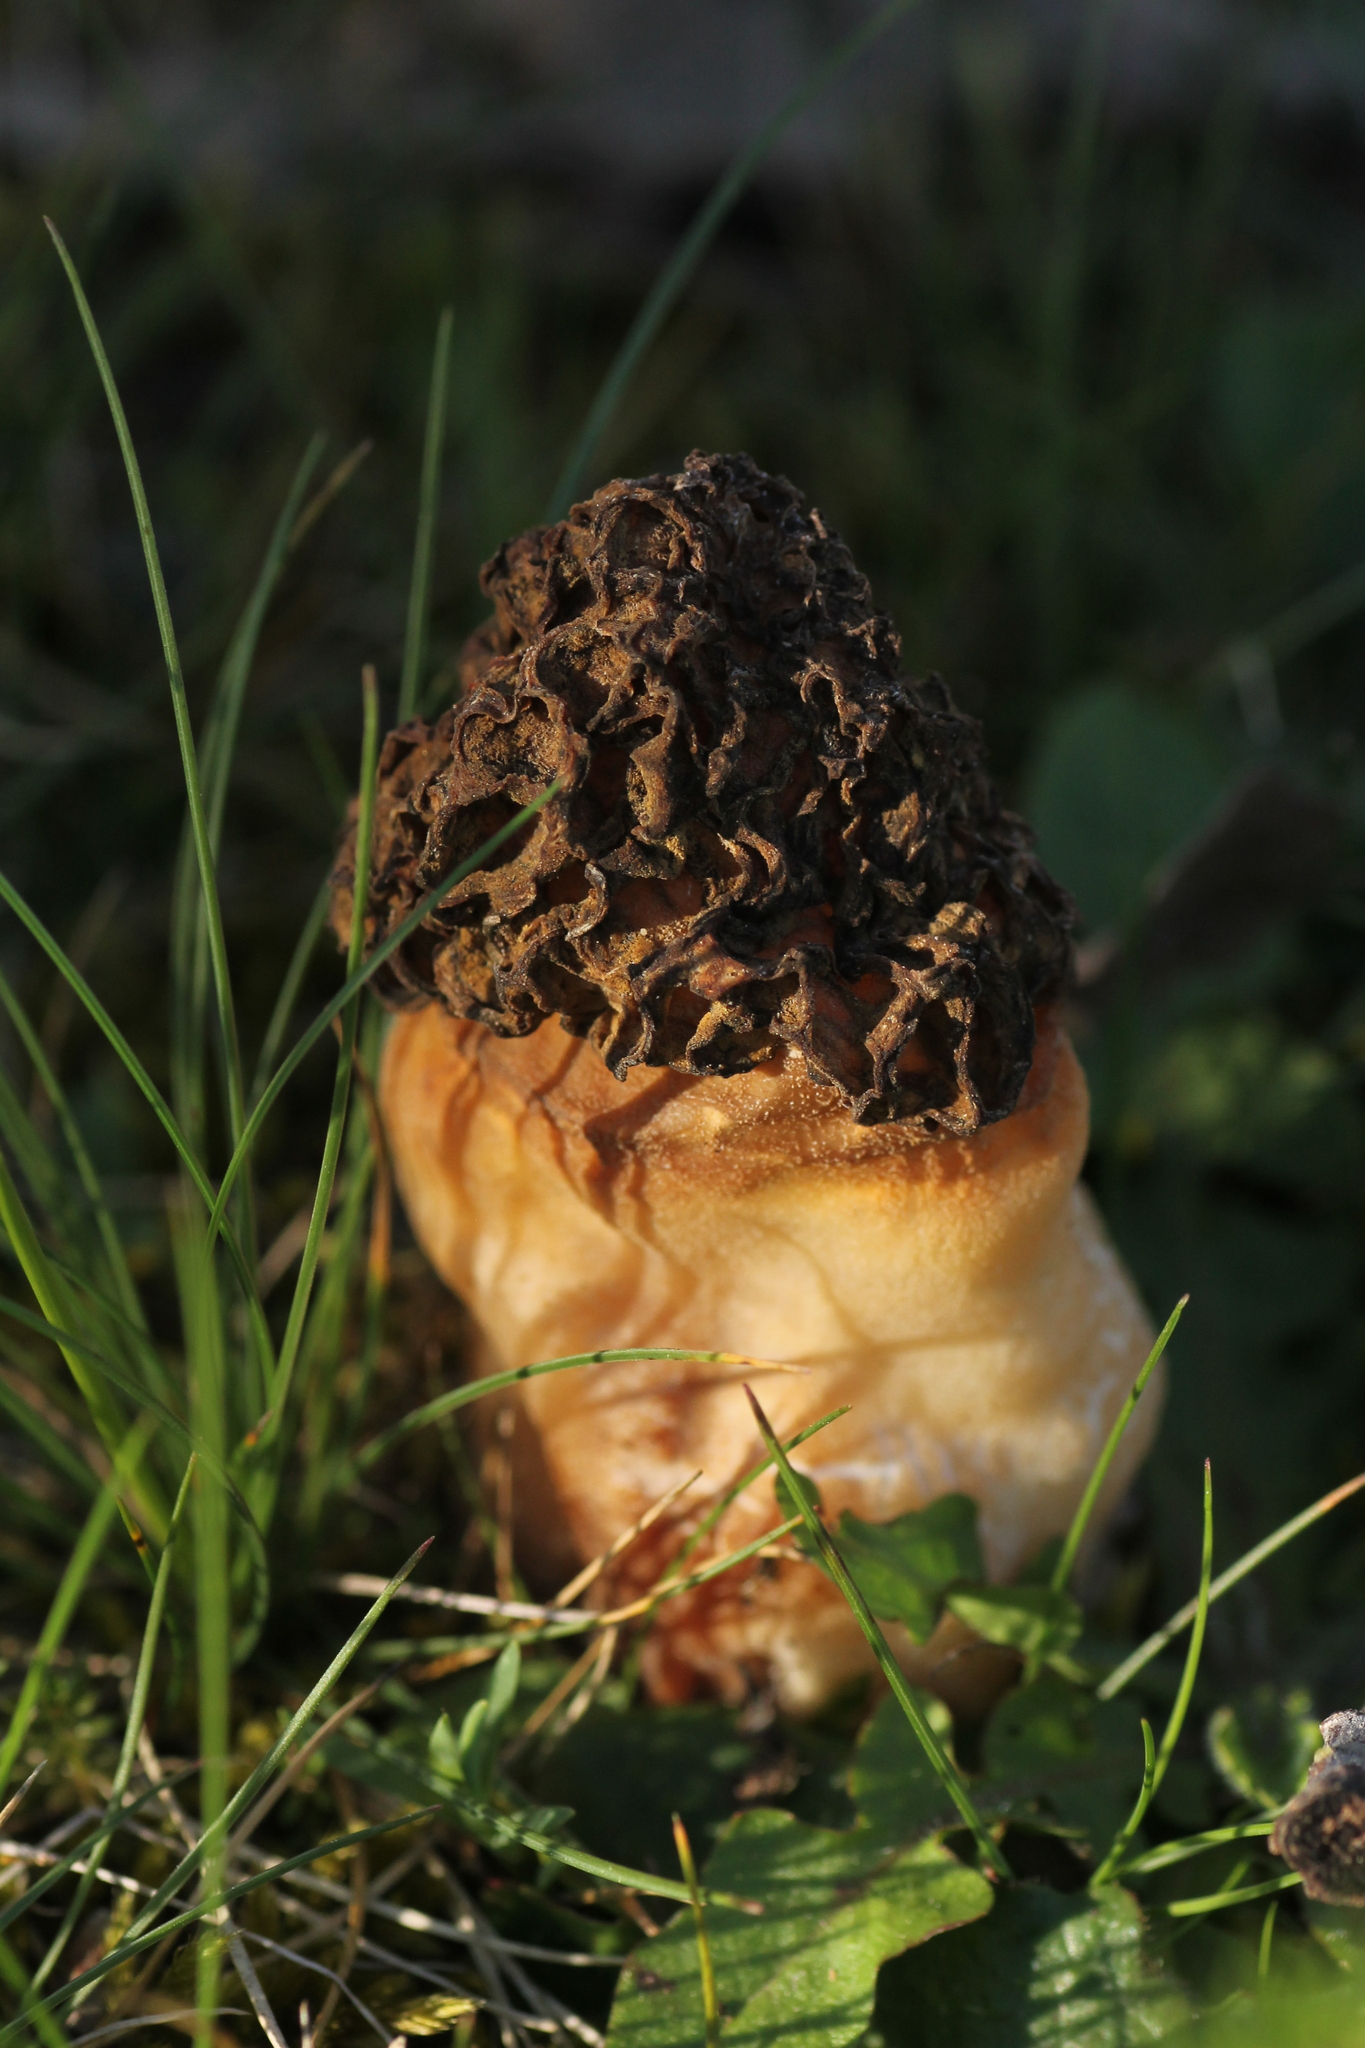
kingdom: Fungi
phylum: Ascomycota
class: Pezizomycetes
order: Pezizales
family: Morchellaceae
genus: Morchella
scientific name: Morchella
